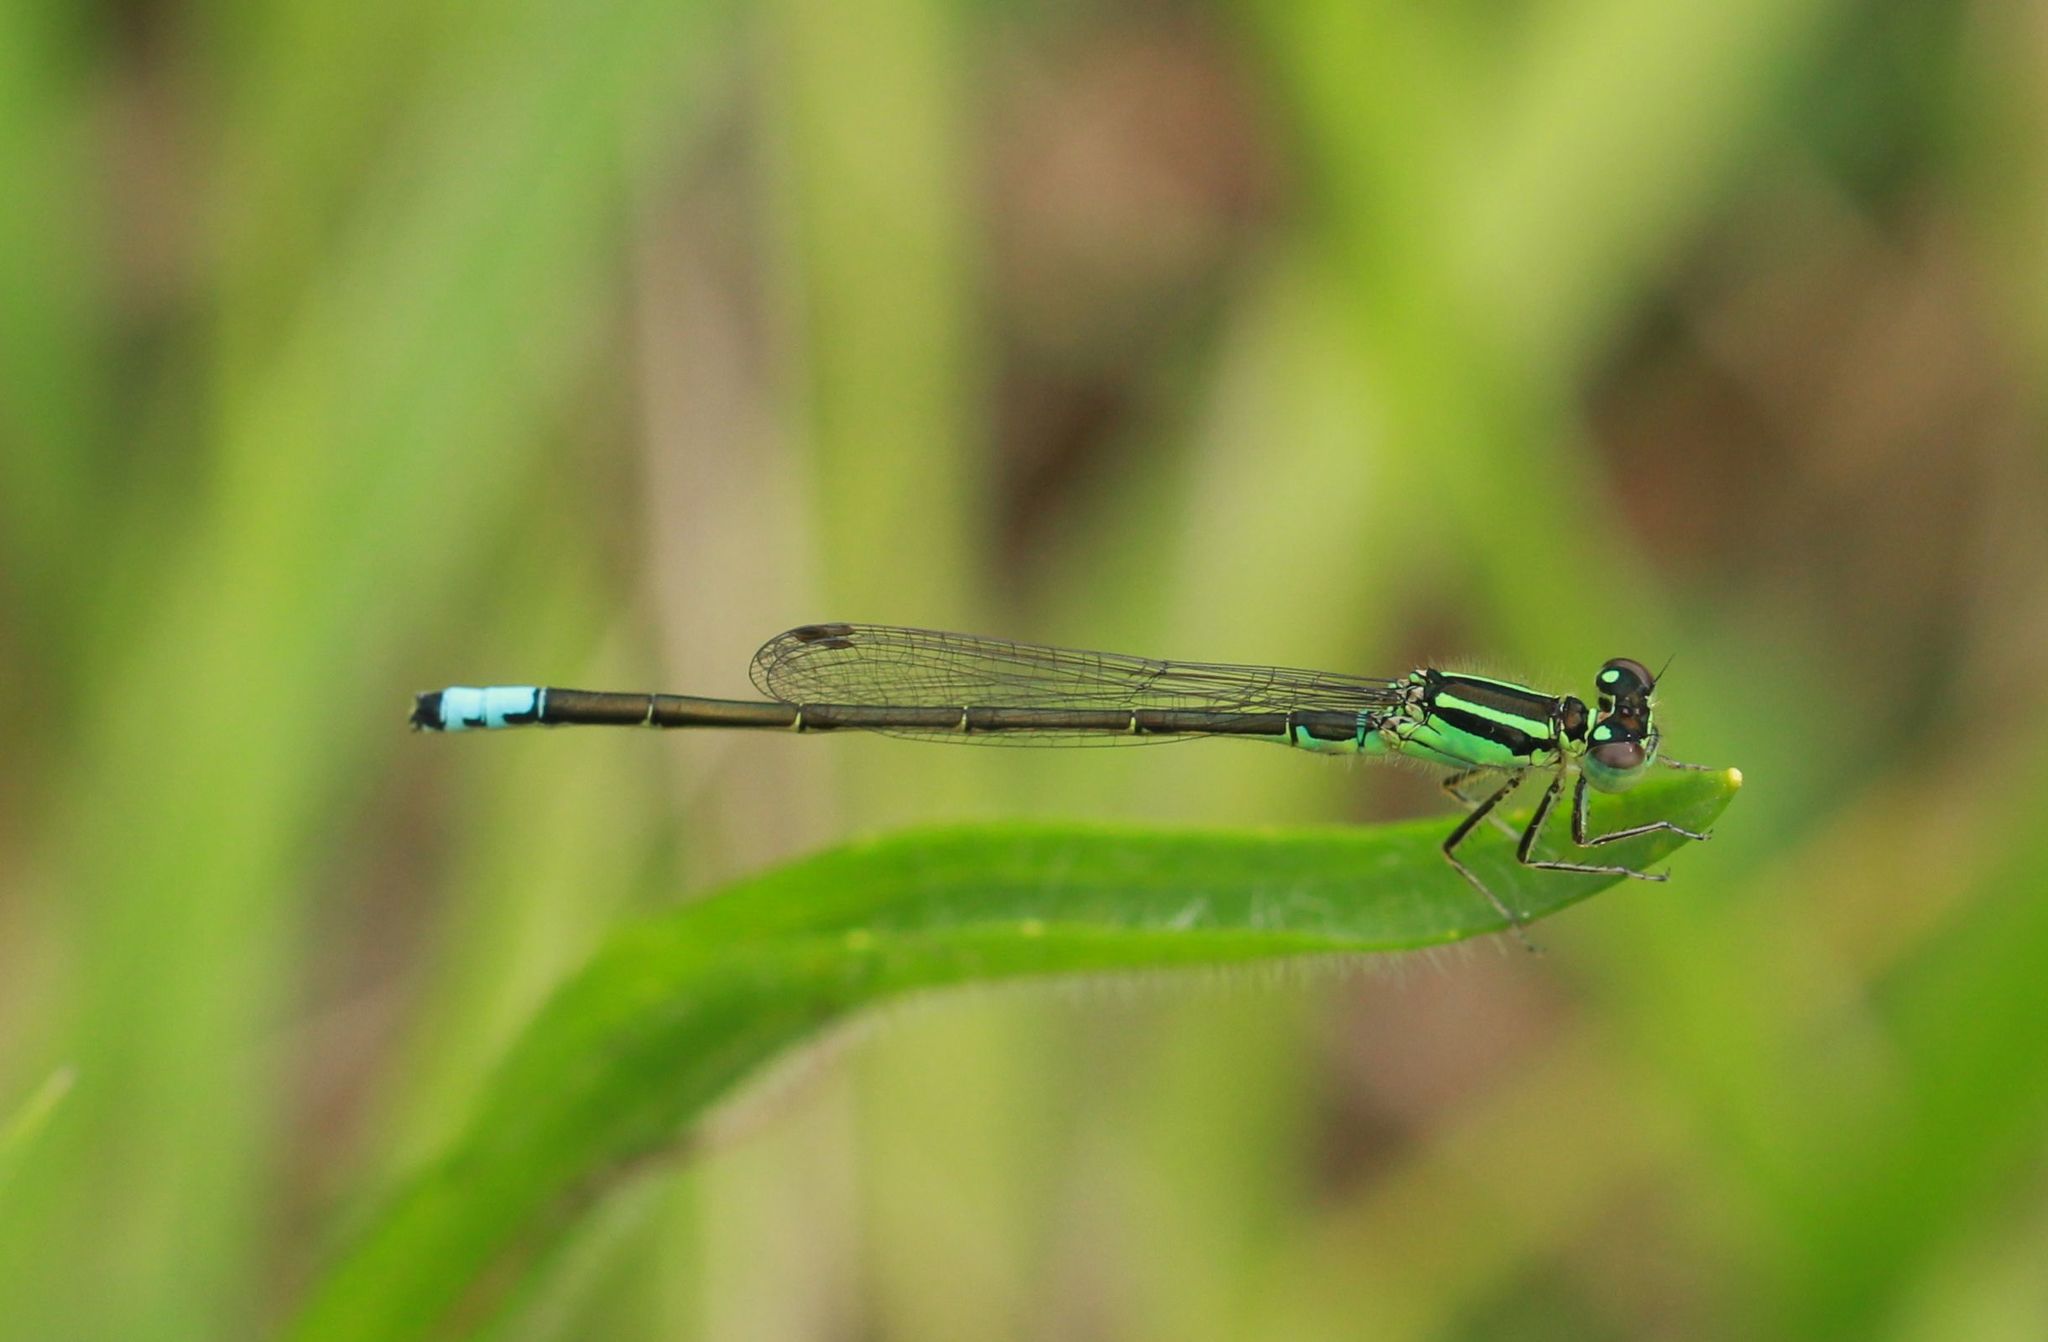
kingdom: Animalia
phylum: Arthropoda
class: Insecta
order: Odonata
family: Coenagrionidae
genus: Ischnura
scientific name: Ischnura verticalis
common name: Eastern forktail
